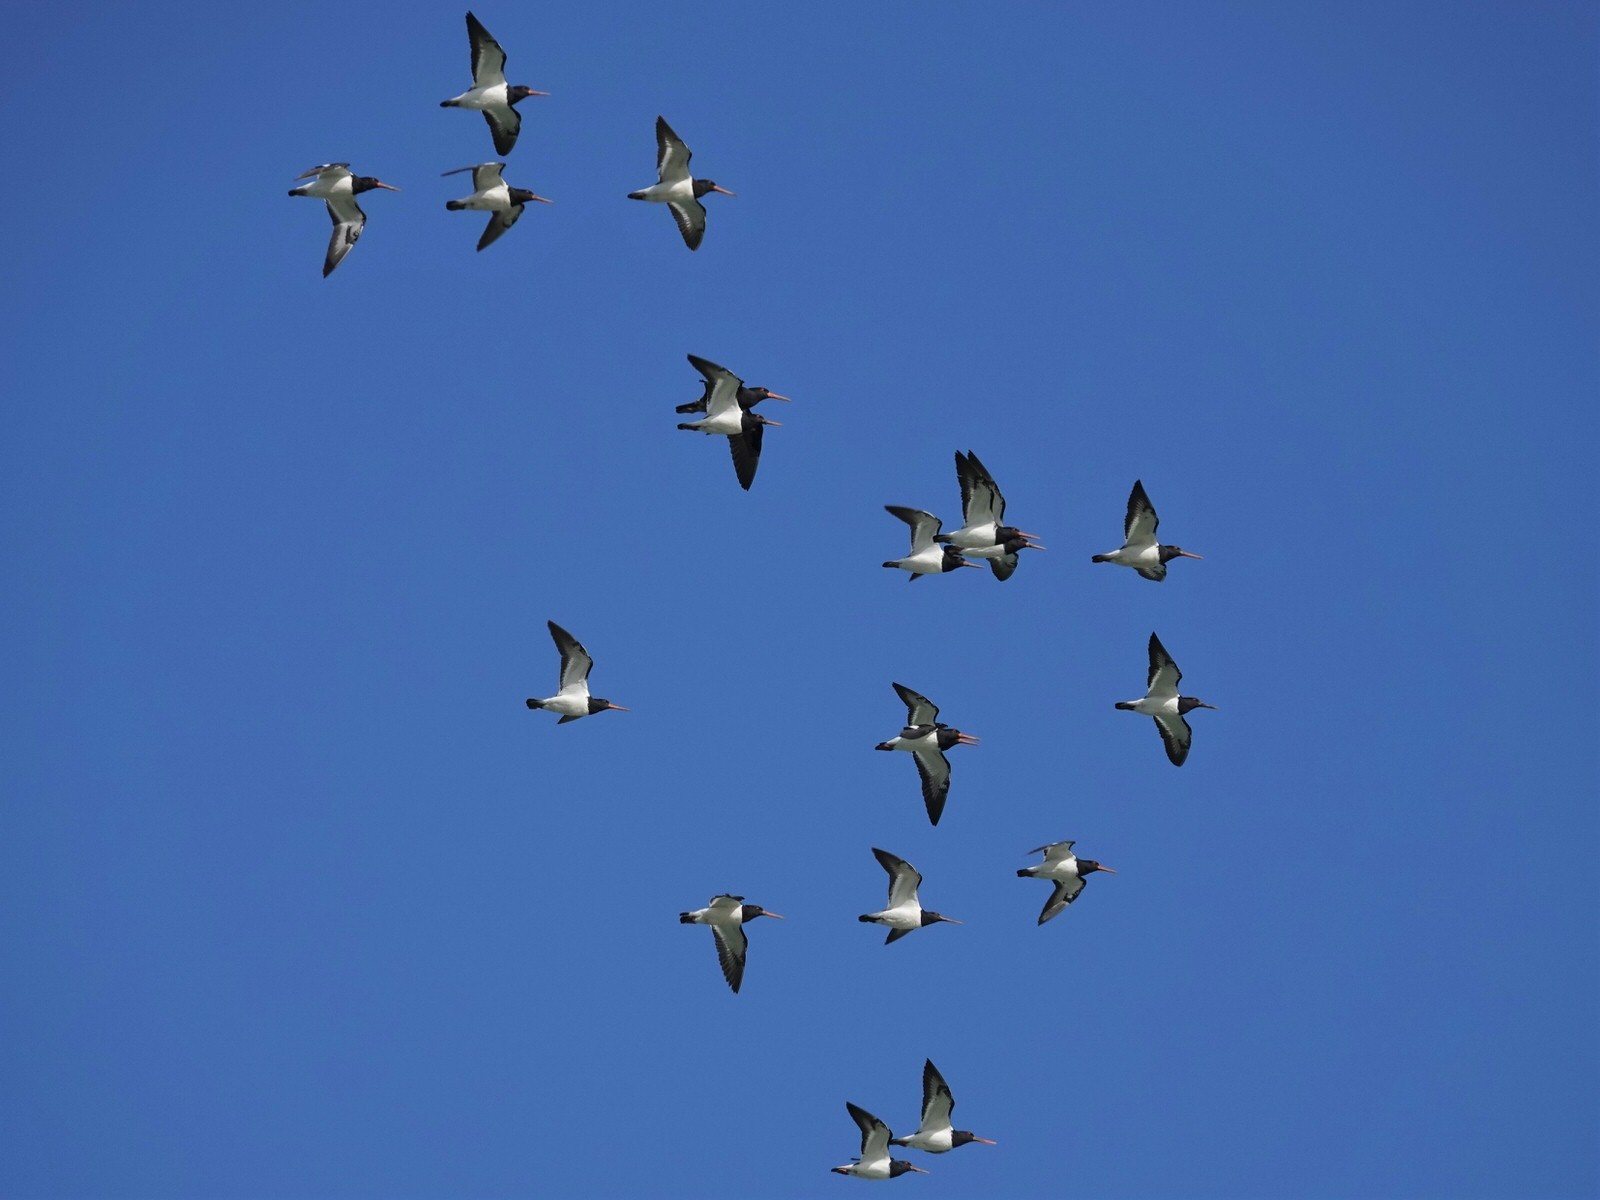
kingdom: Animalia
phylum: Chordata
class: Aves
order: Charadriiformes
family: Haematopodidae
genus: Haematopus
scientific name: Haematopus finschi
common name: South island oystercatcher
